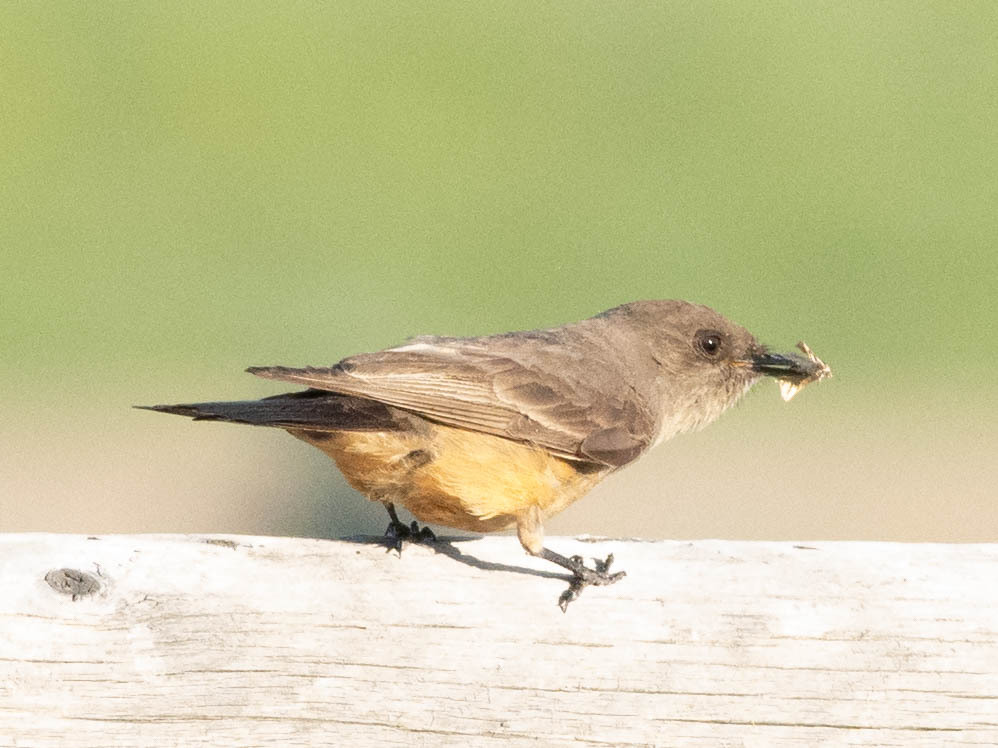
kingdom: Animalia
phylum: Chordata
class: Aves
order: Passeriformes
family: Tyrannidae
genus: Sayornis
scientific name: Sayornis saya
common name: Say's phoebe
